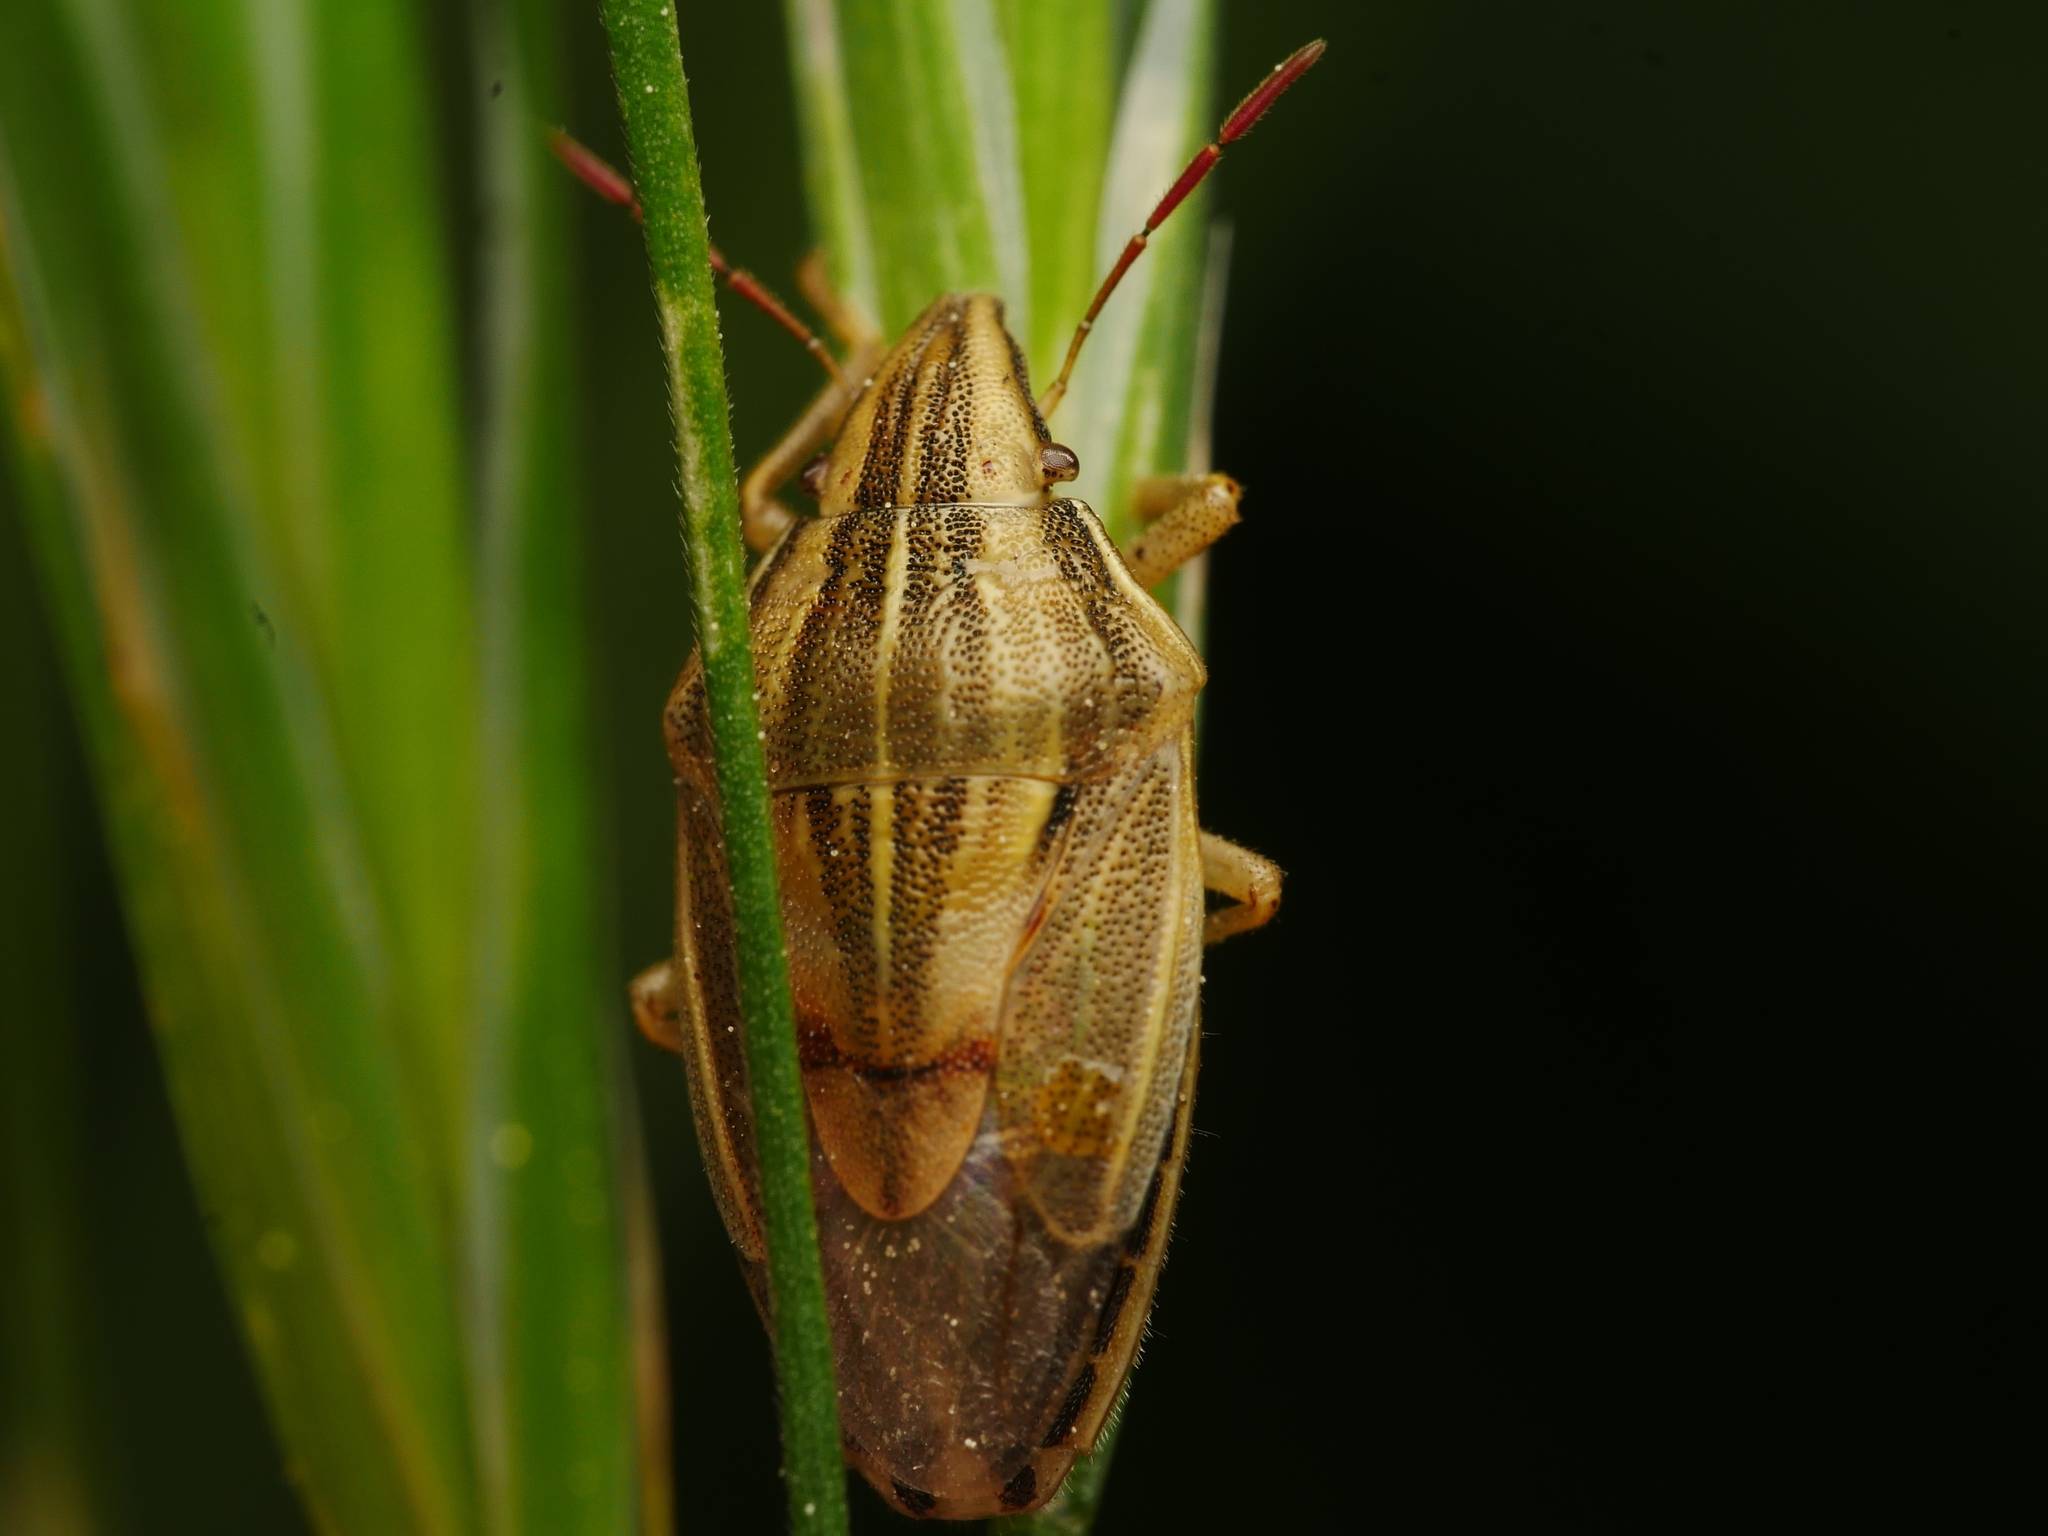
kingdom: Animalia
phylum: Arthropoda
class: Insecta
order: Hemiptera
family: Pentatomidae
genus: Aelia
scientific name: Aelia acuminata
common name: Bishop's mitre
